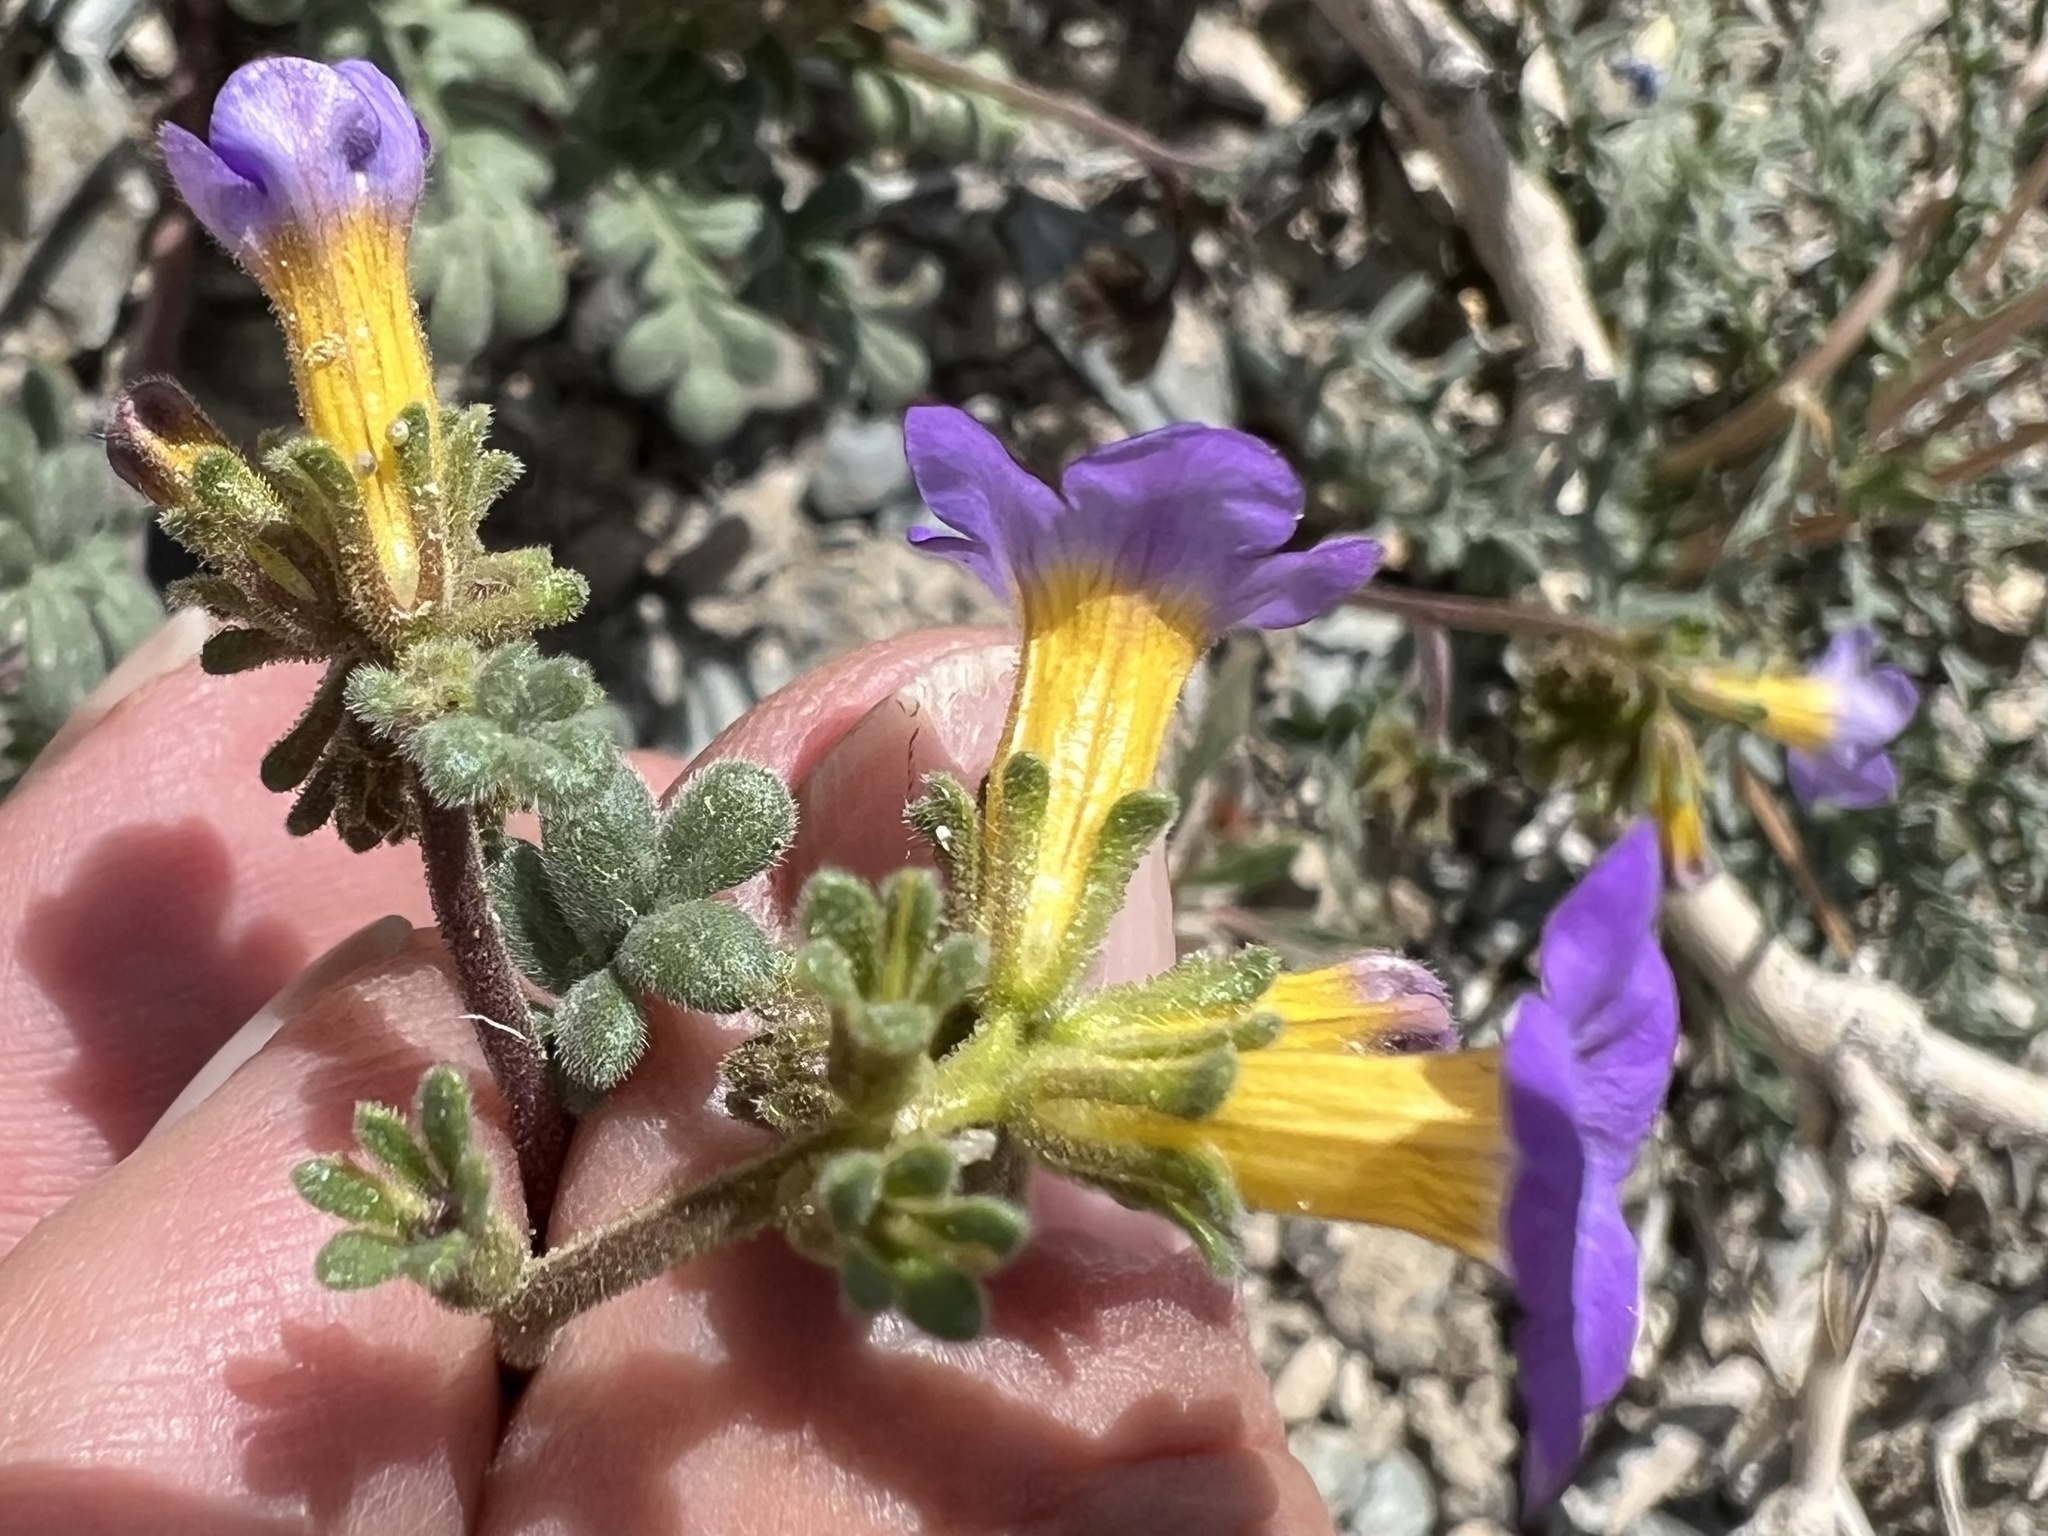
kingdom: Plantae
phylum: Tracheophyta
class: Magnoliopsida
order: Boraginales
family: Hydrophyllaceae
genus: Phacelia
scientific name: Phacelia fremontii
